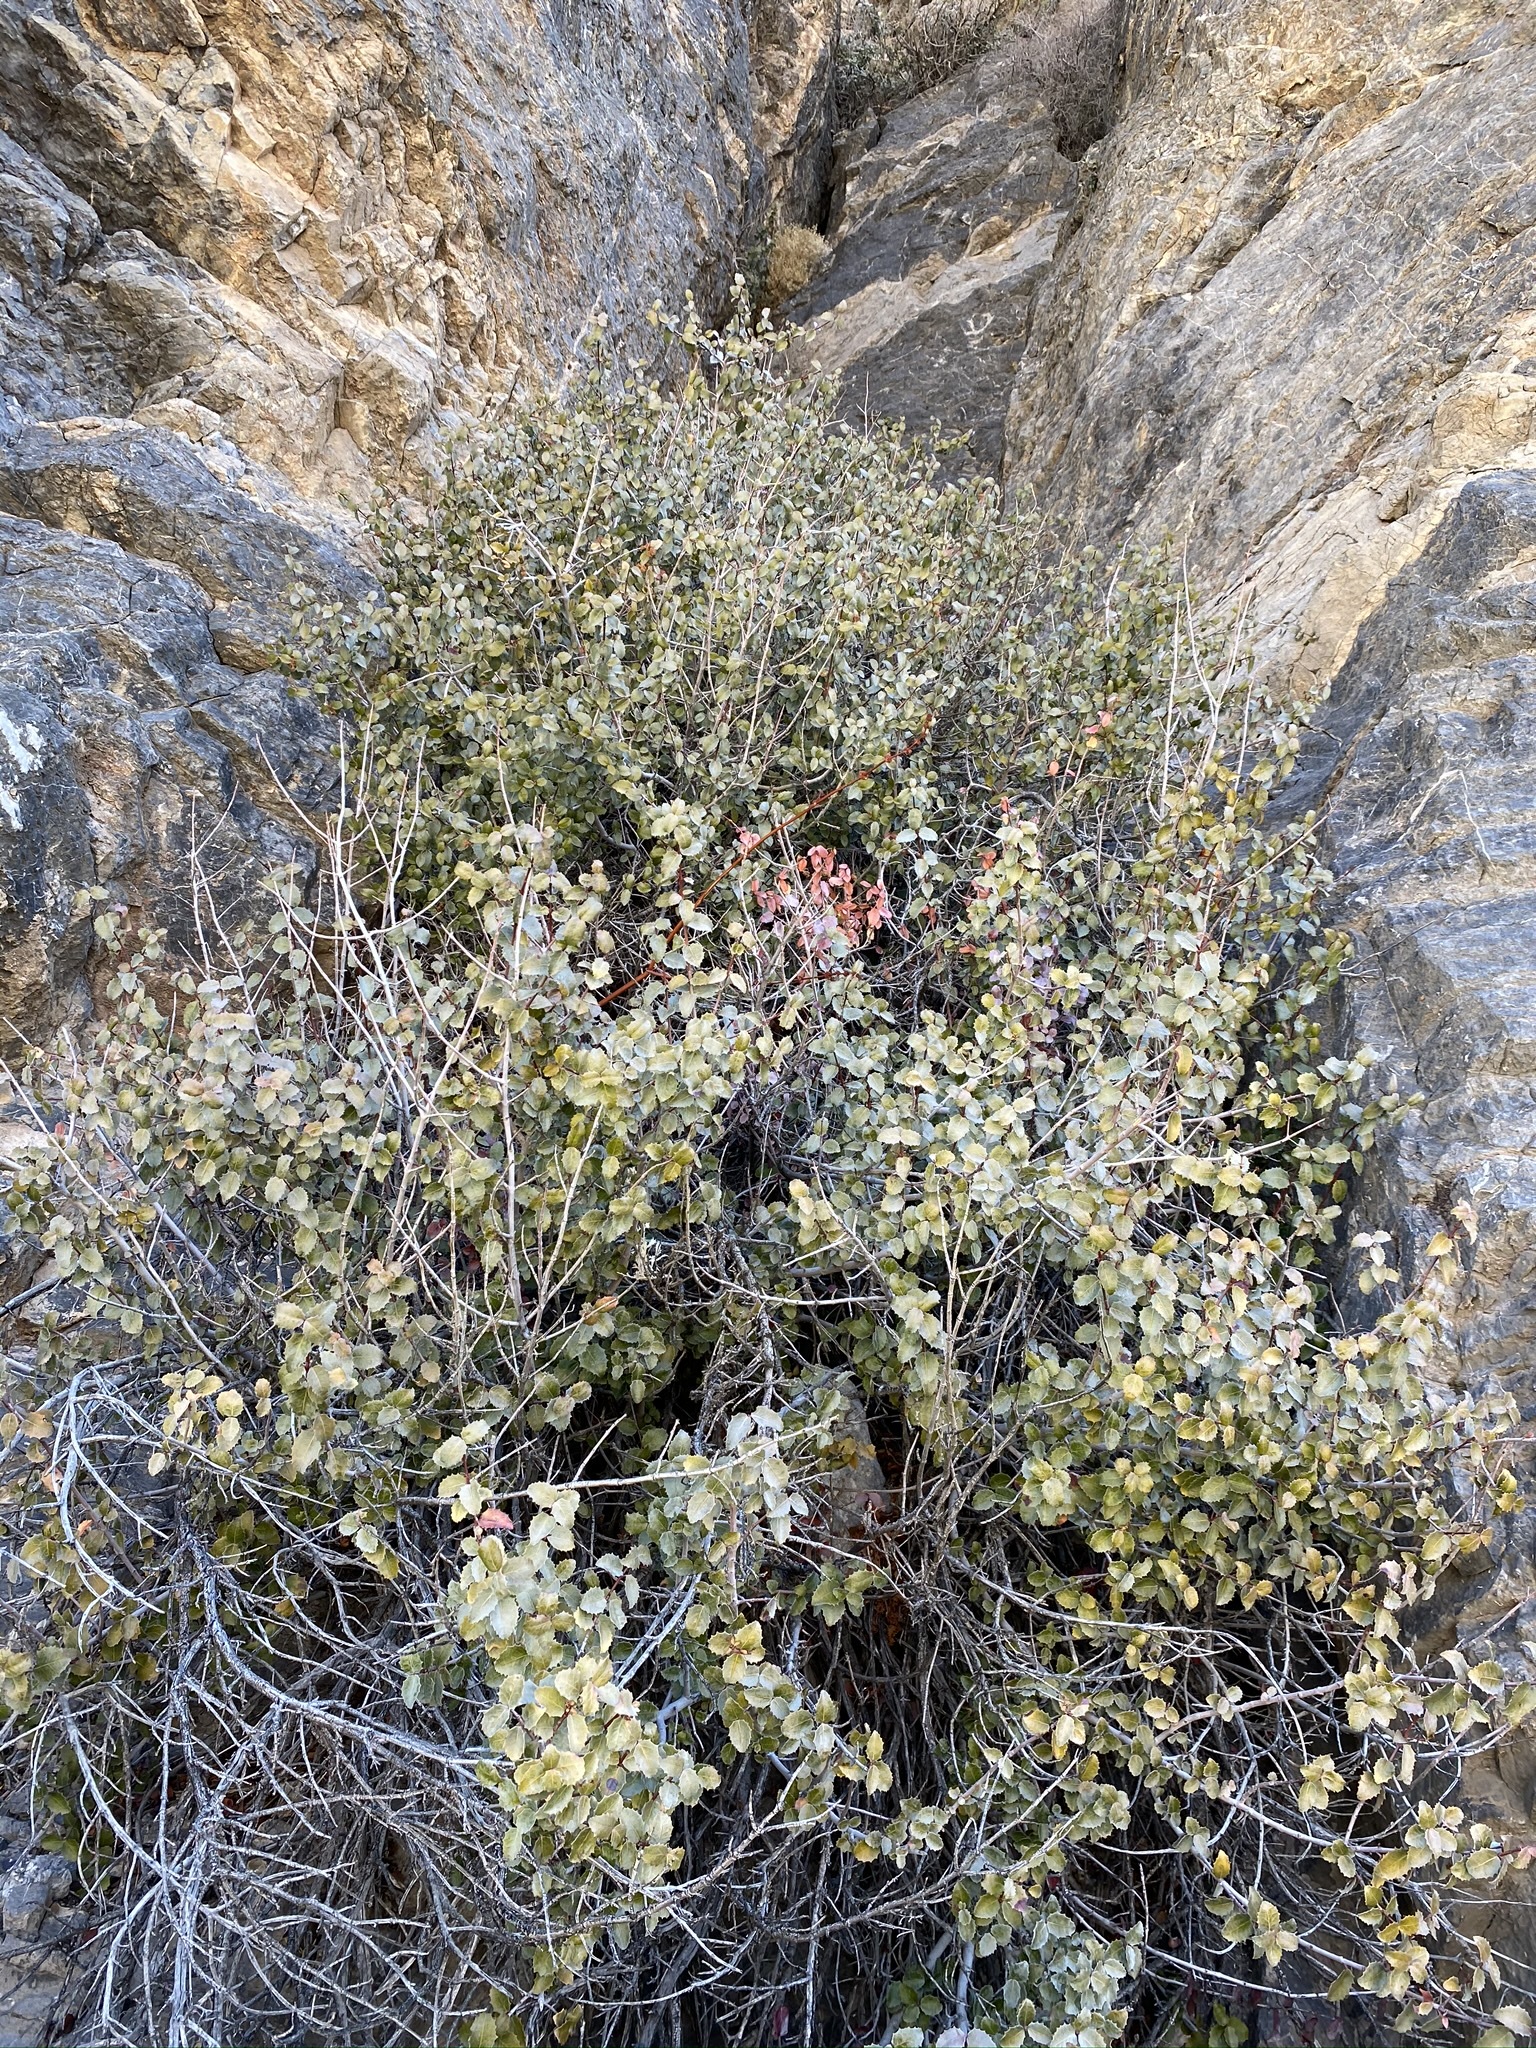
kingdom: Plantae
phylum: Tracheophyta
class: Magnoliopsida
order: Malpighiales
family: Picrodendraceae
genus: Tetracoccus
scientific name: Tetracoccus ilicifolius
